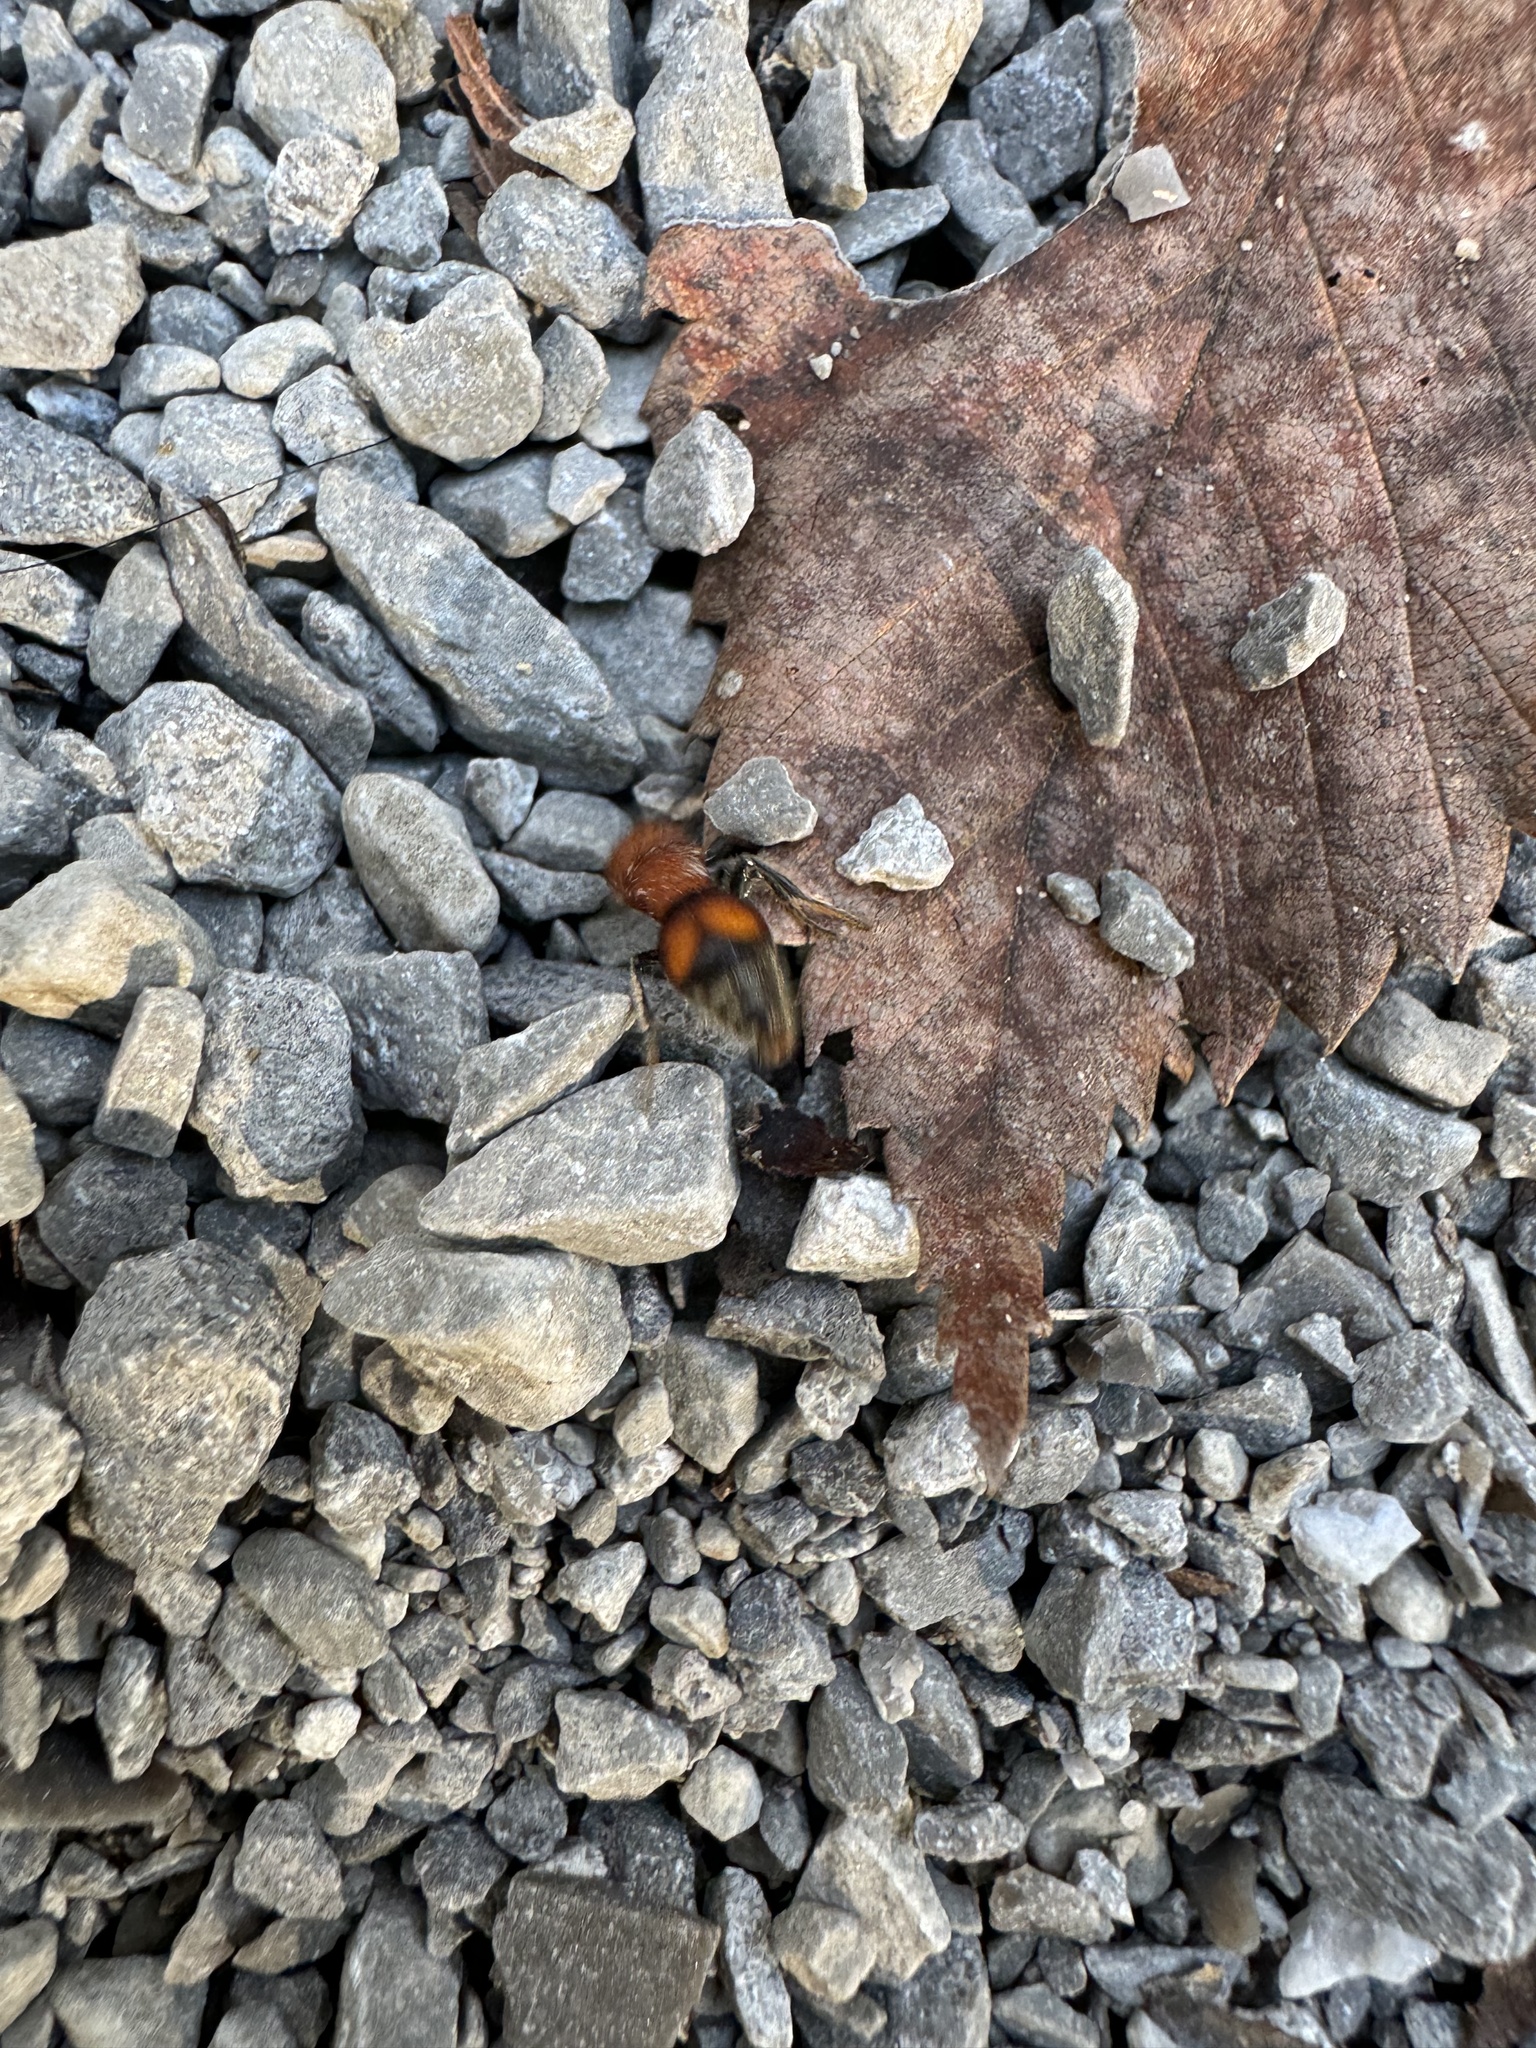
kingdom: Animalia
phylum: Arthropoda
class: Insecta
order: Hymenoptera
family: Mutillidae
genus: Pseudomethoca
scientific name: Pseudomethoca
